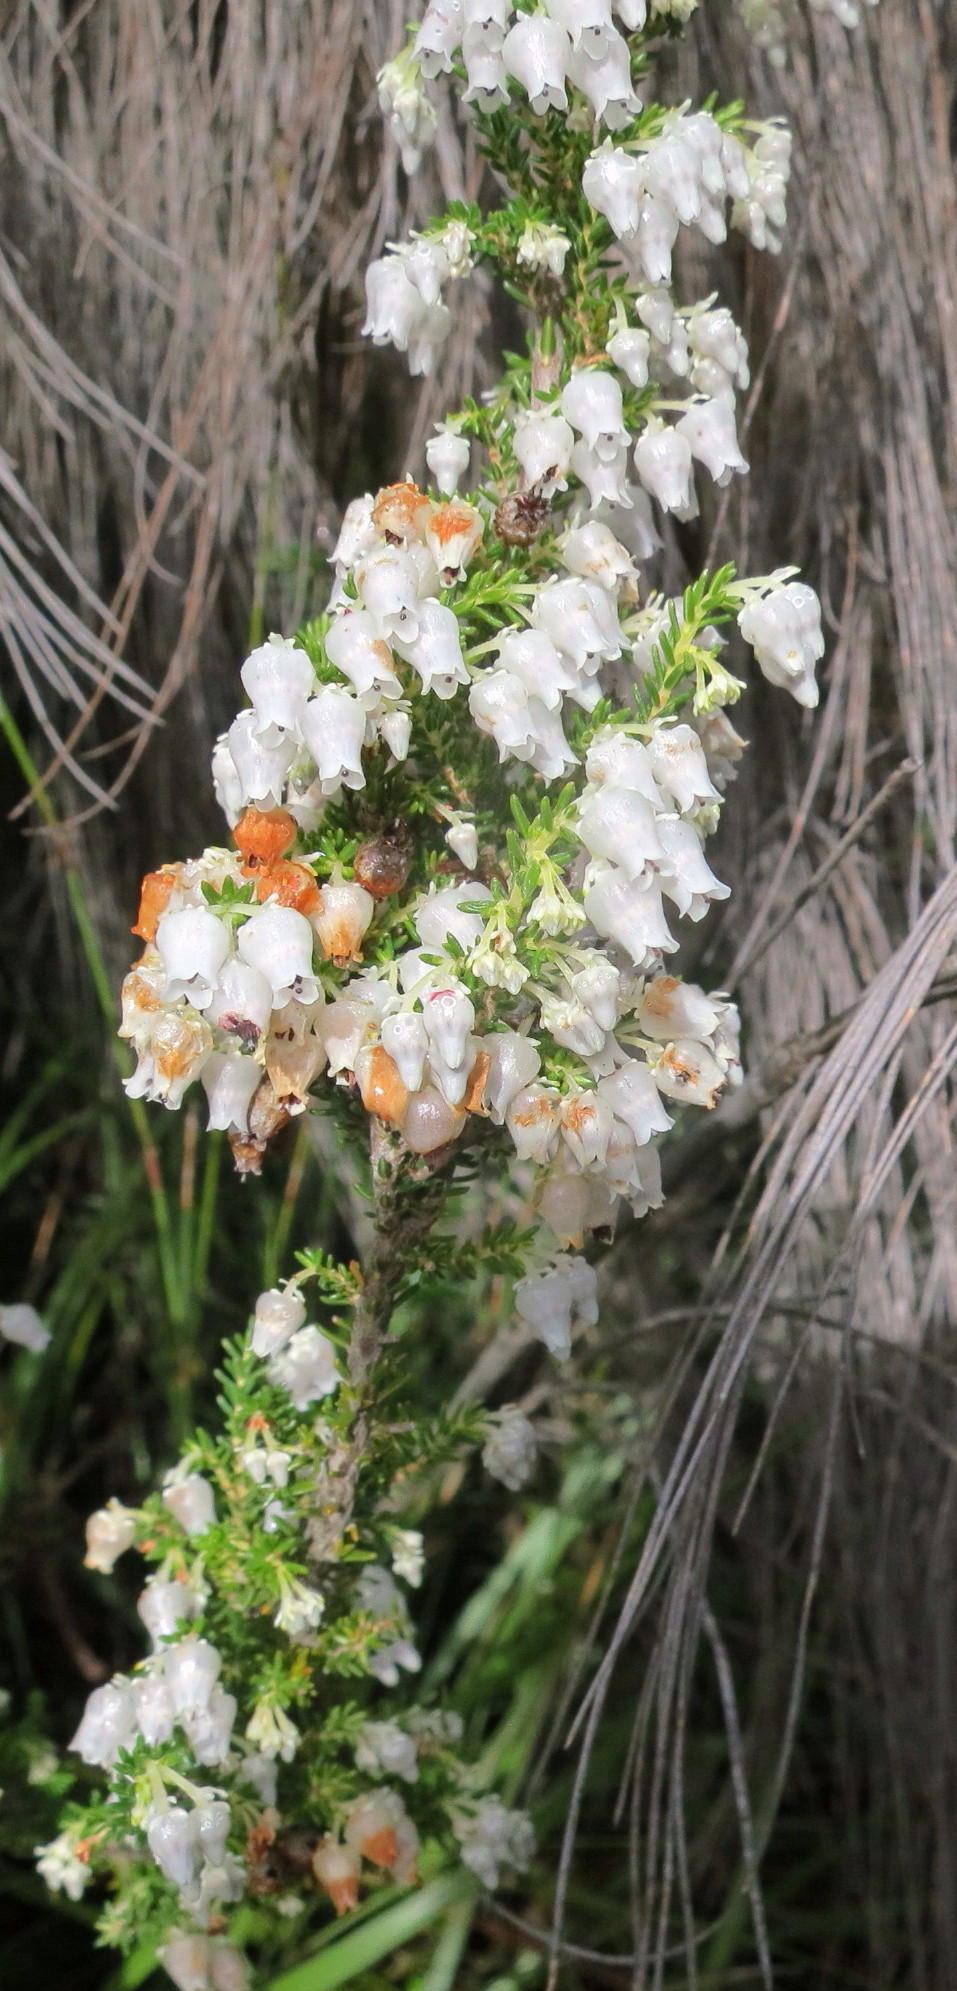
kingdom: Plantae
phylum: Tracheophyta
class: Magnoliopsida
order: Ericales
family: Ericaceae
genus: Erica
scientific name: Erica glomiflora
